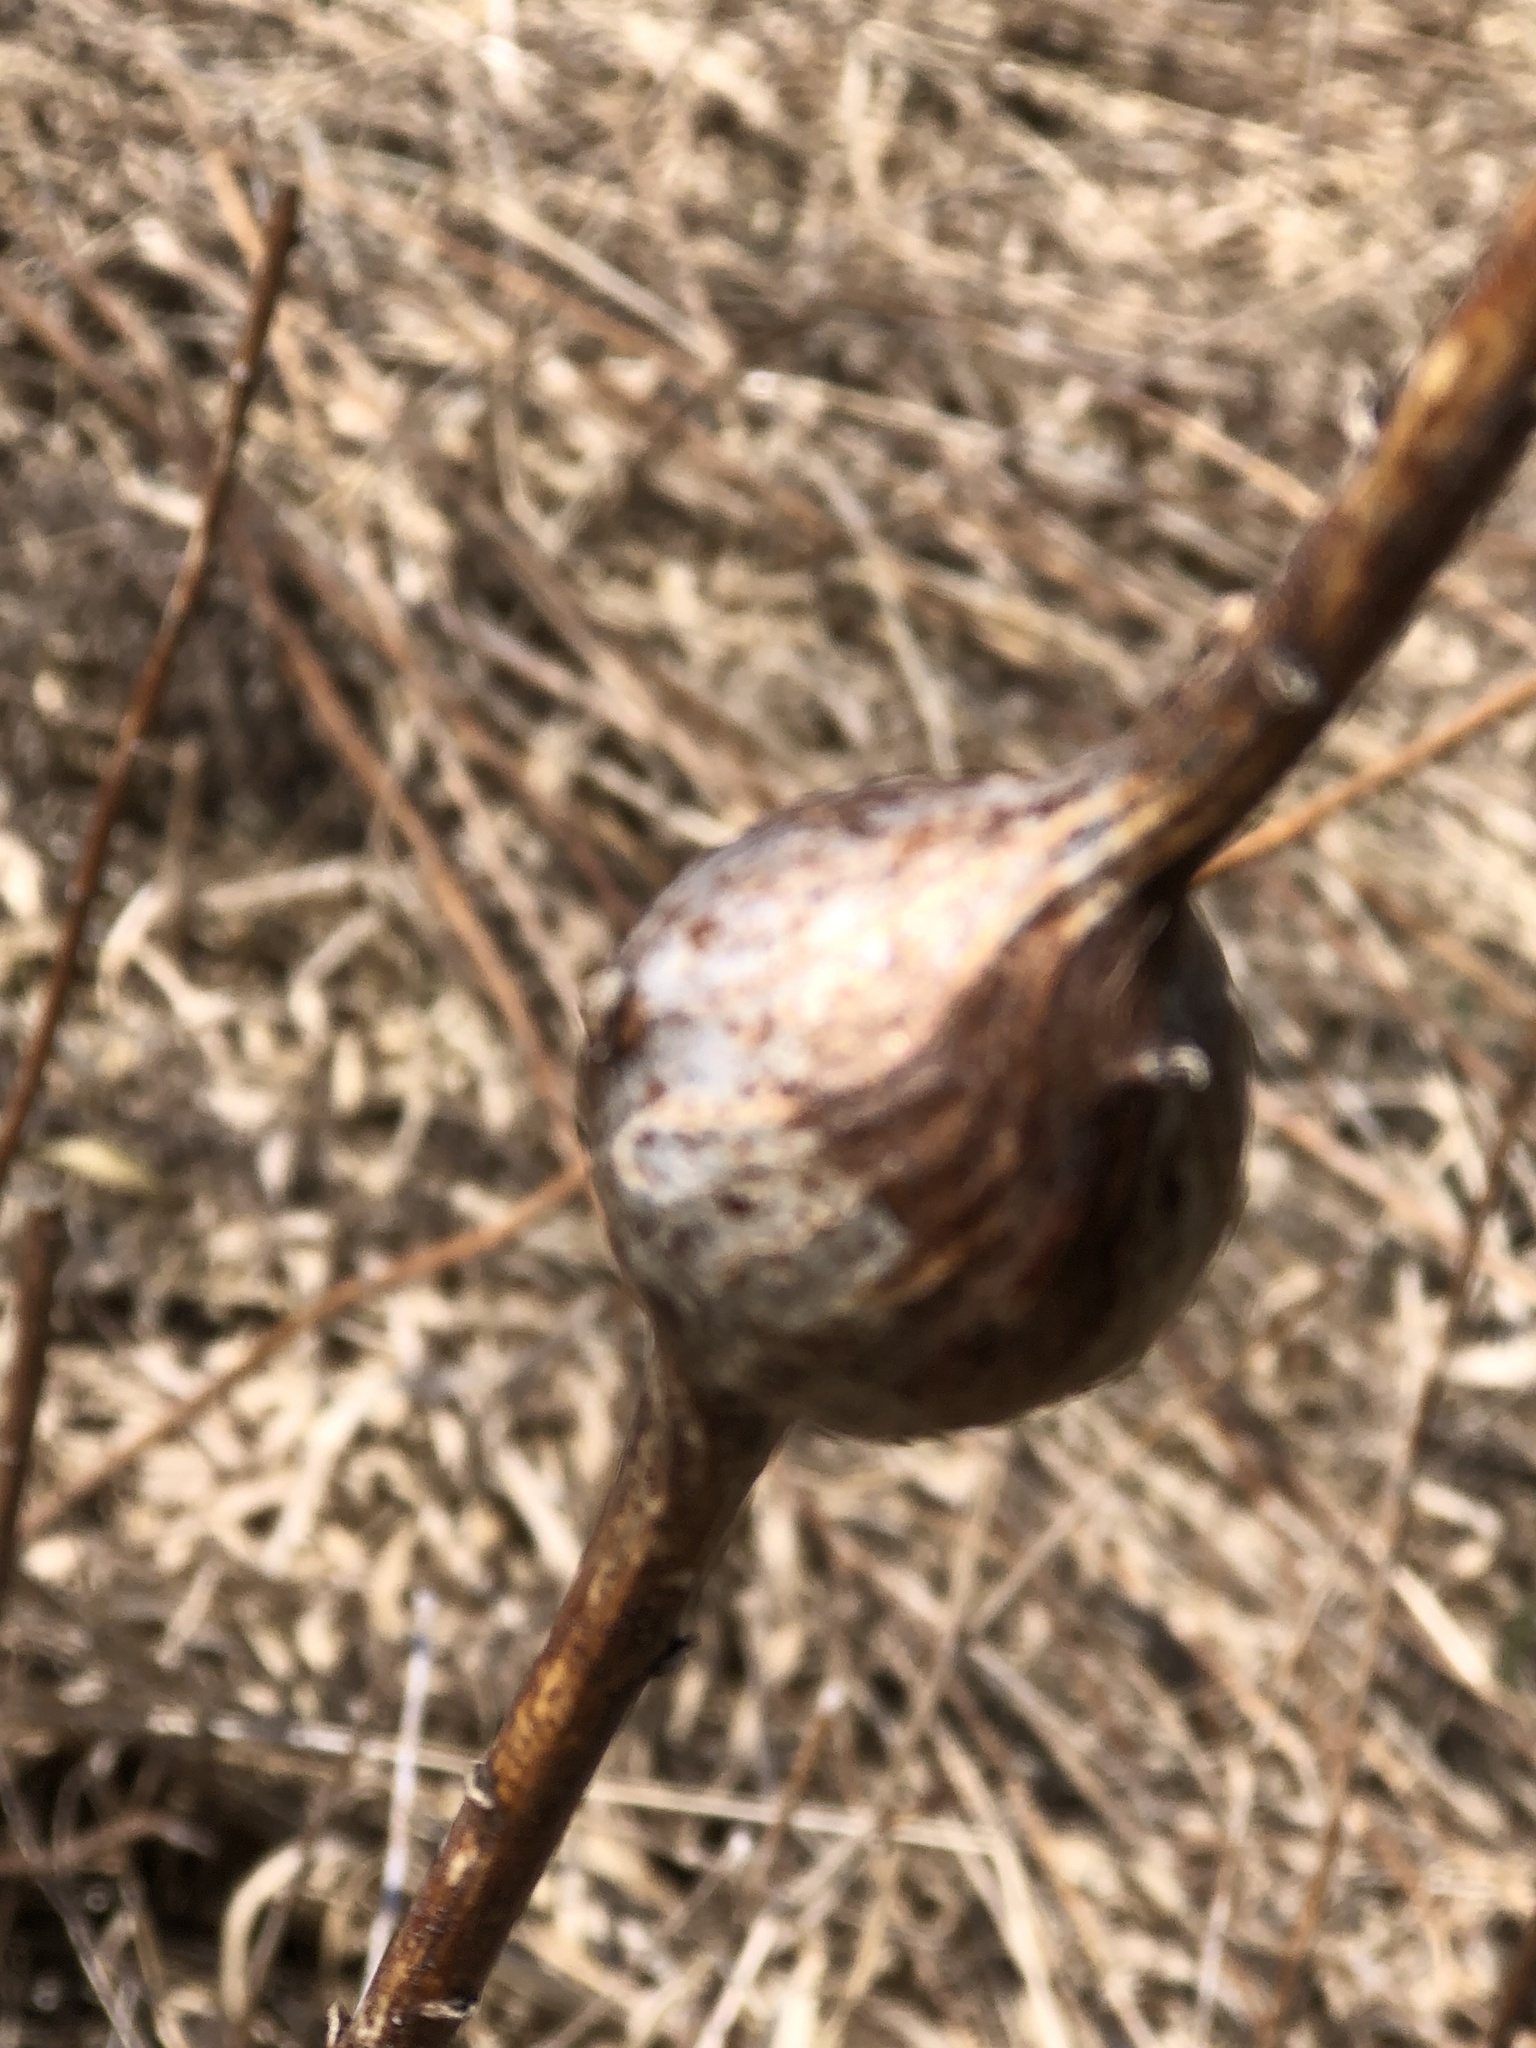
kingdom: Animalia
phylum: Arthropoda
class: Insecta
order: Diptera
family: Tephritidae
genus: Eurosta
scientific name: Eurosta solidaginis
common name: Goldenrod gall fly
